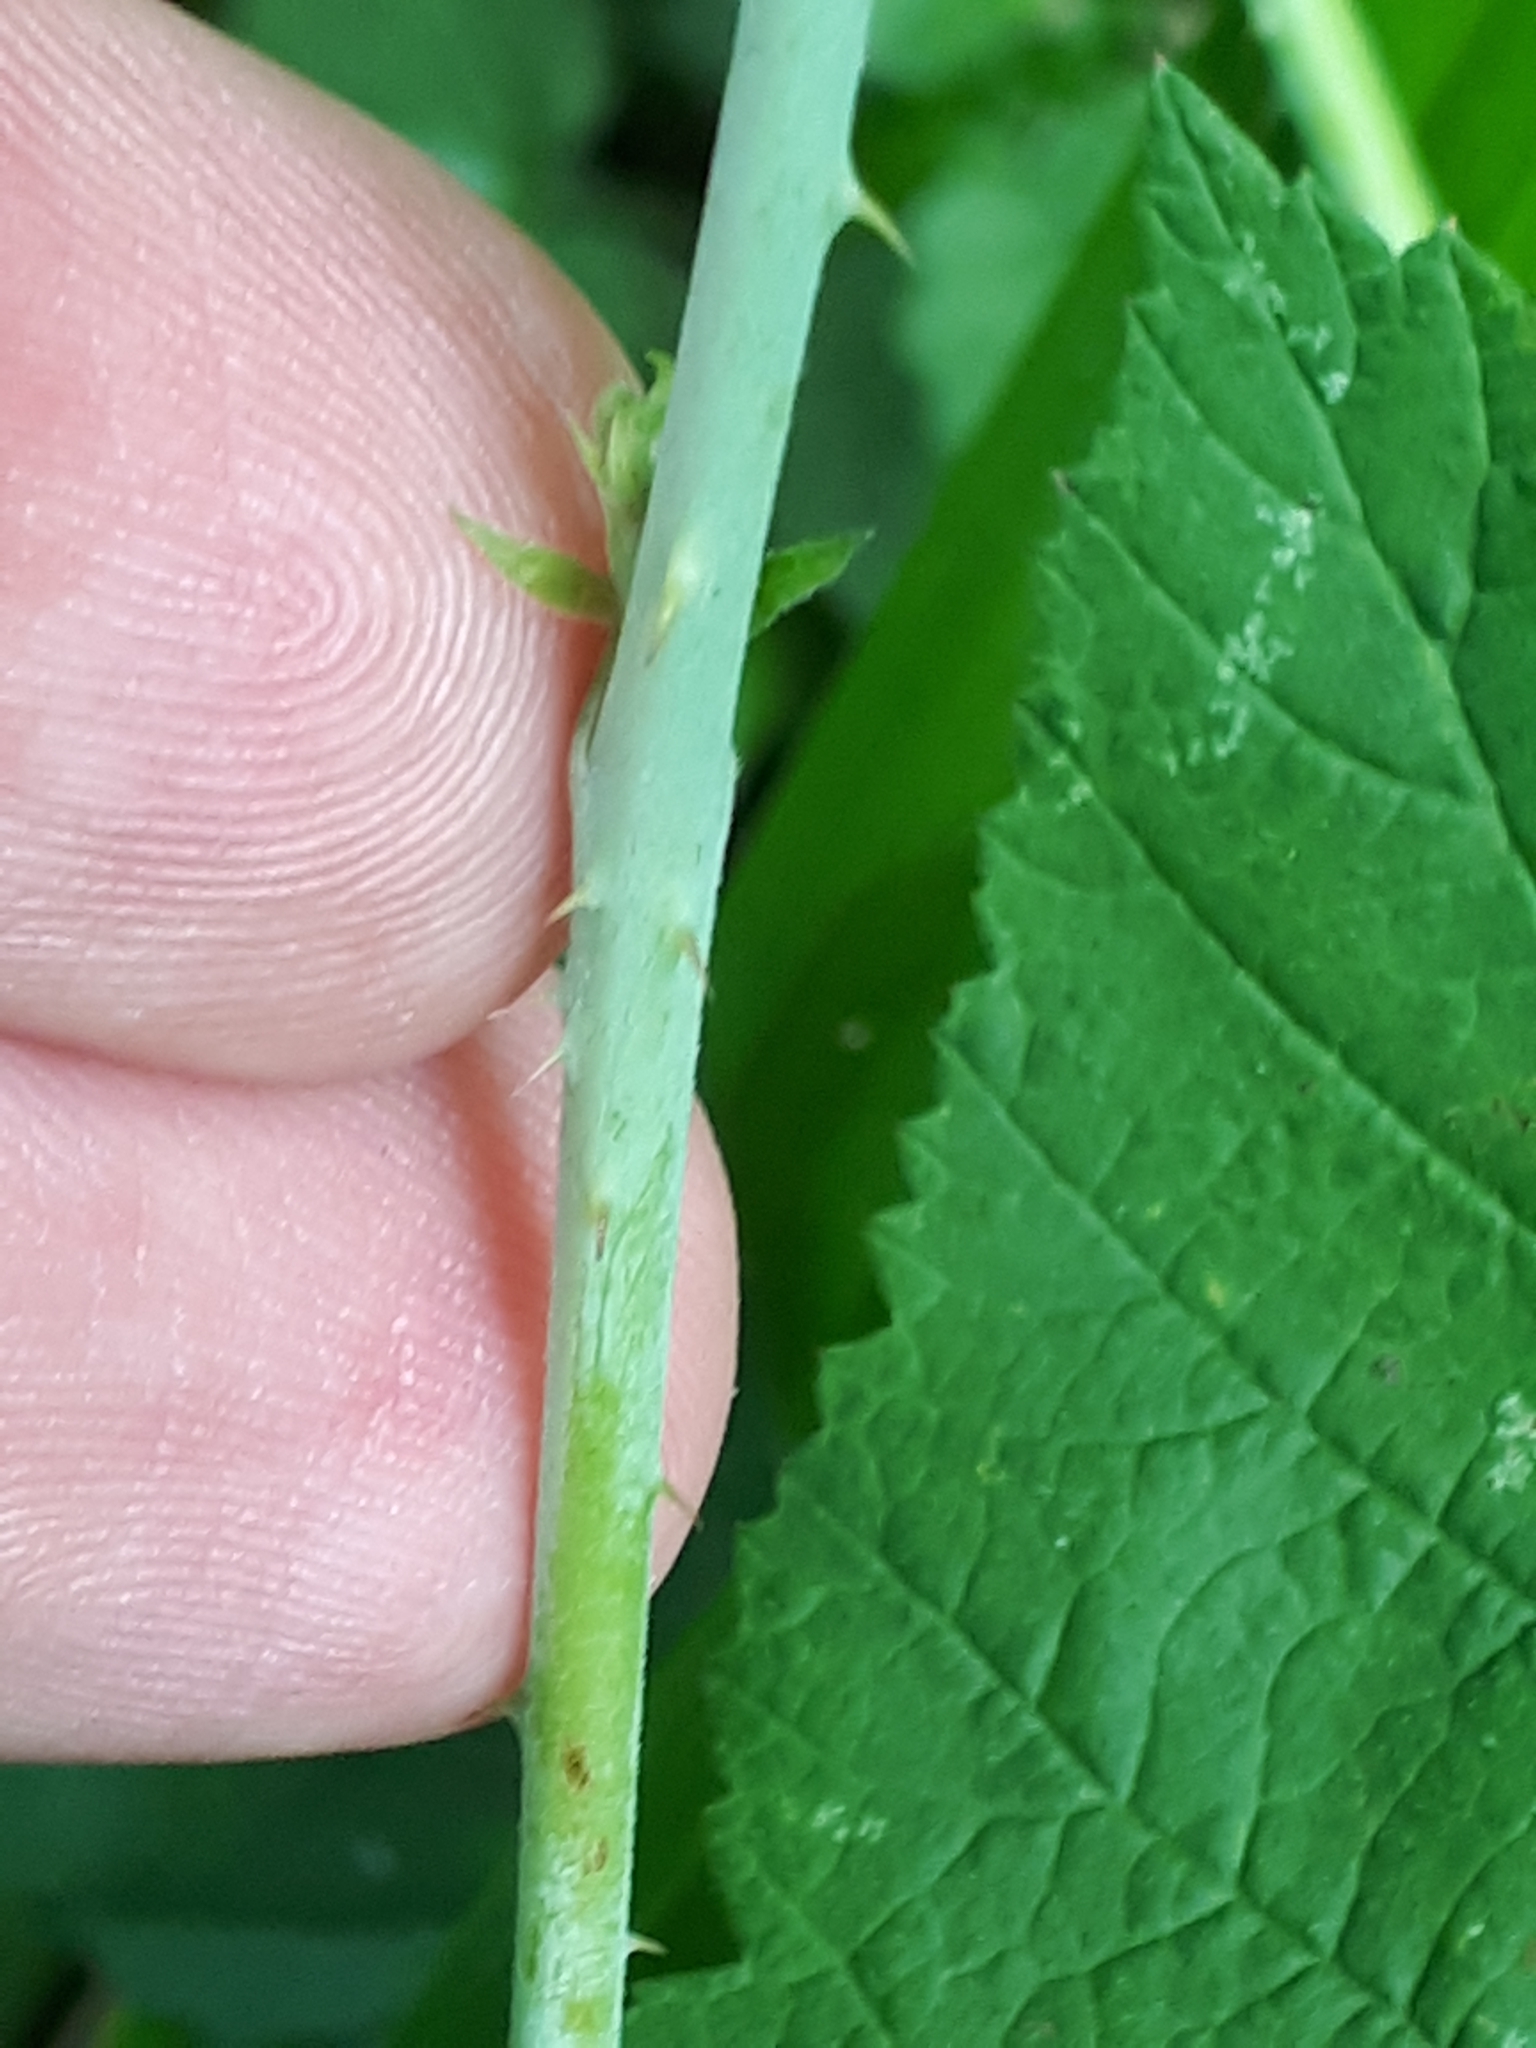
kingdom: Plantae
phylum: Tracheophyta
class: Magnoliopsida
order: Rosales
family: Rosaceae
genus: Rubus
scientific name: Rubus caesius
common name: Dewberry
